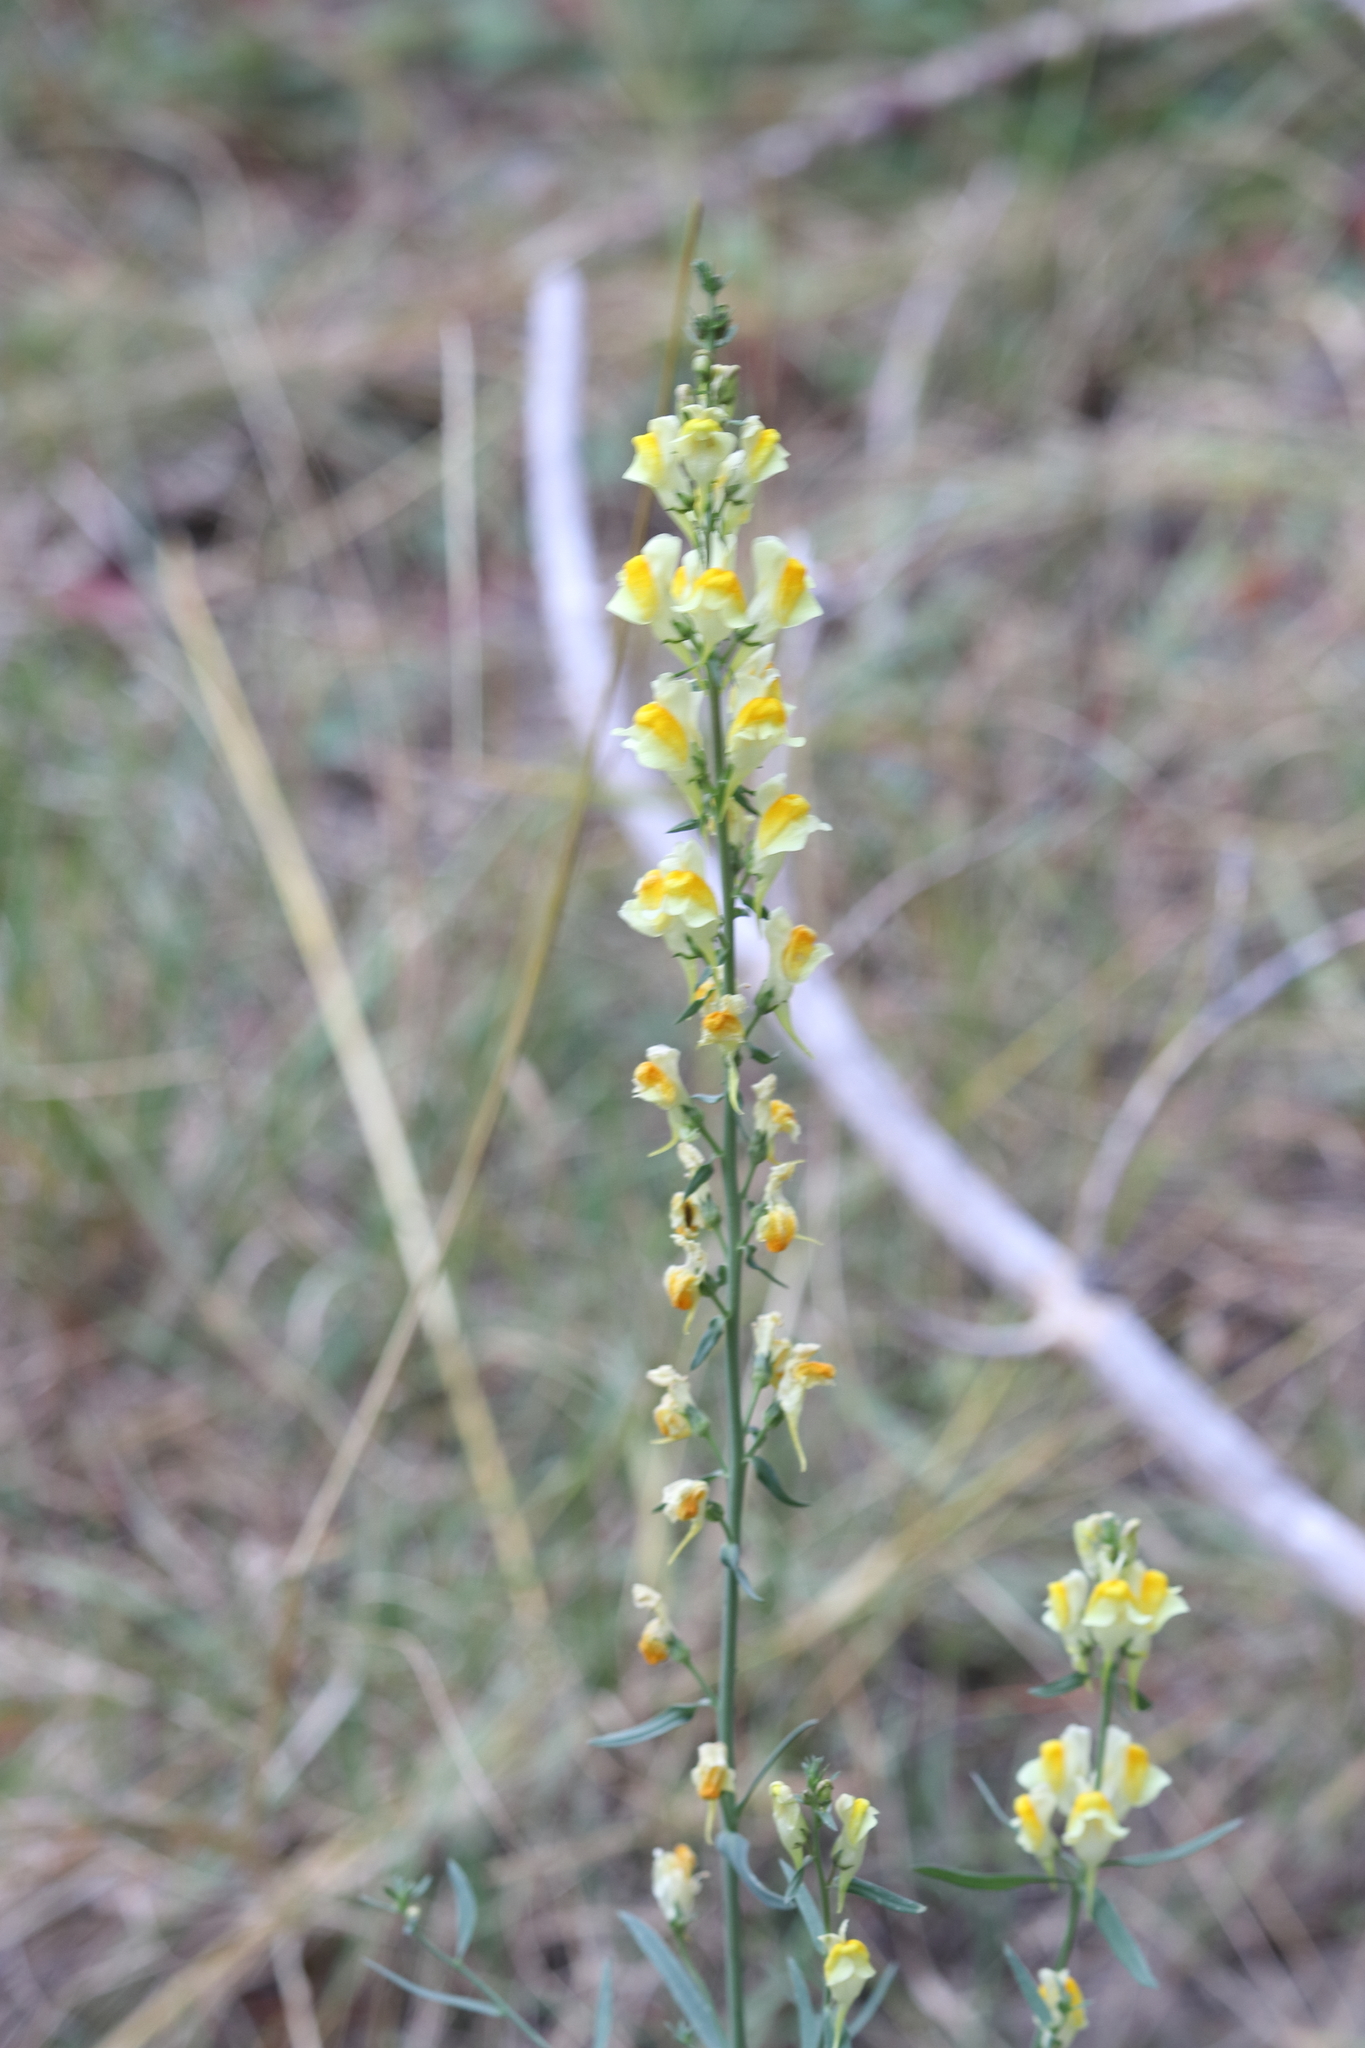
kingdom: Plantae
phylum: Tracheophyta
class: Magnoliopsida
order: Lamiales
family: Plantaginaceae
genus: Linaria
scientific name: Linaria vulgaris
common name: Butter and eggs
